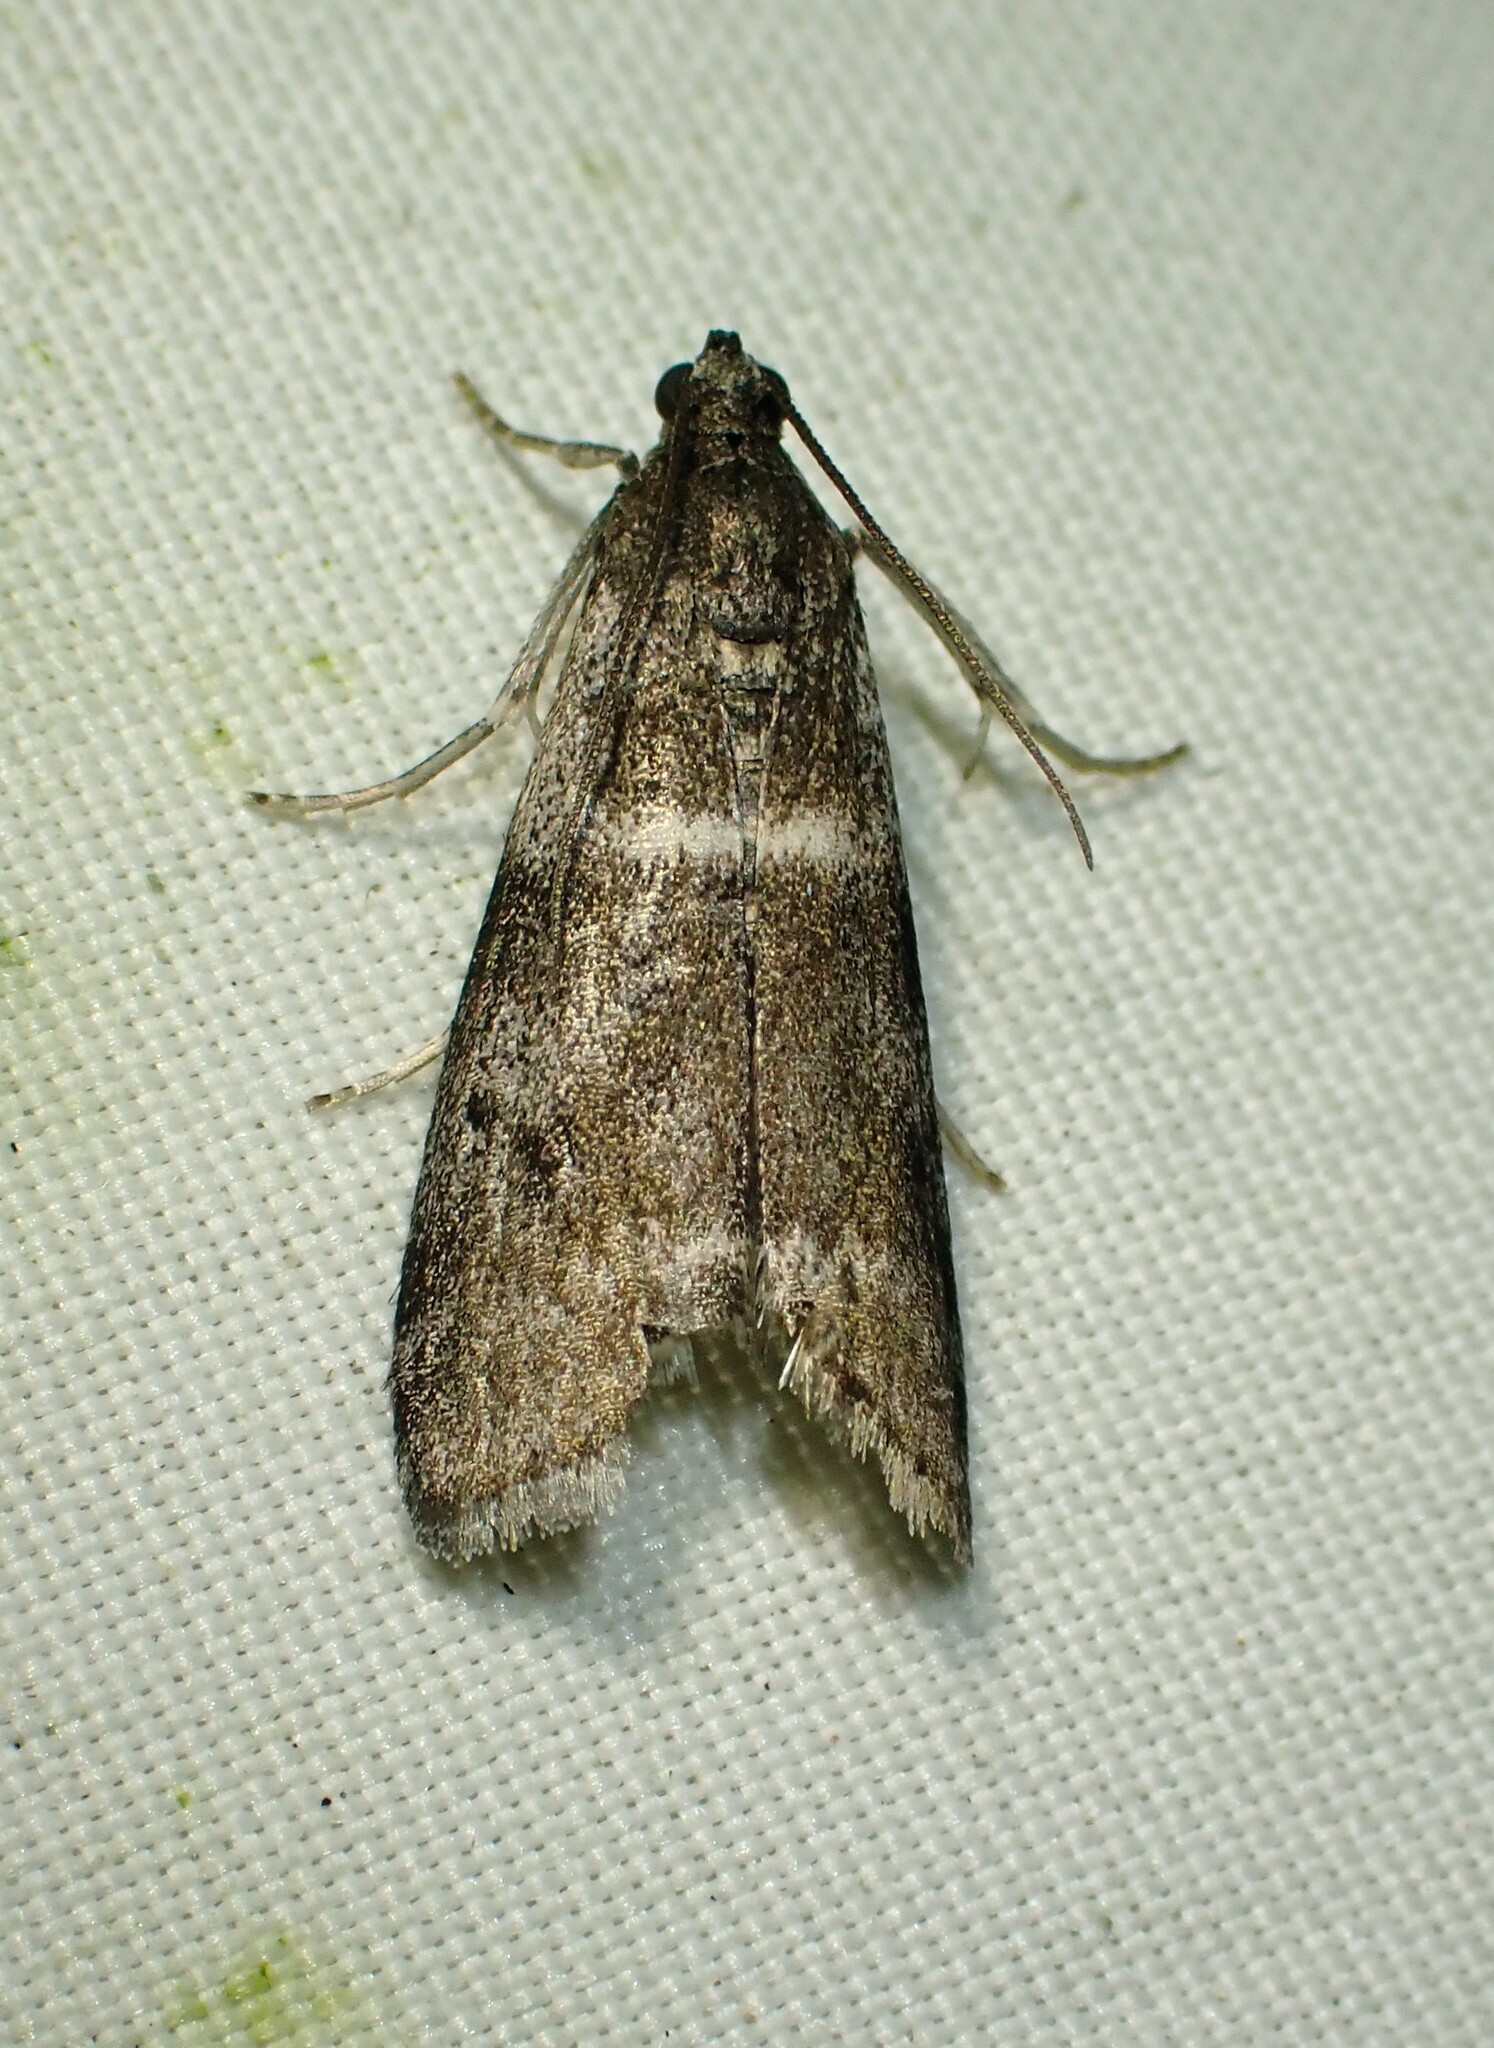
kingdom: Animalia
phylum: Arthropoda
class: Insecta
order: Lepidoptera
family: Pyralidae
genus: Apomyelois
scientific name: Apomyelois bistriatella
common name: Heath knot-horn
